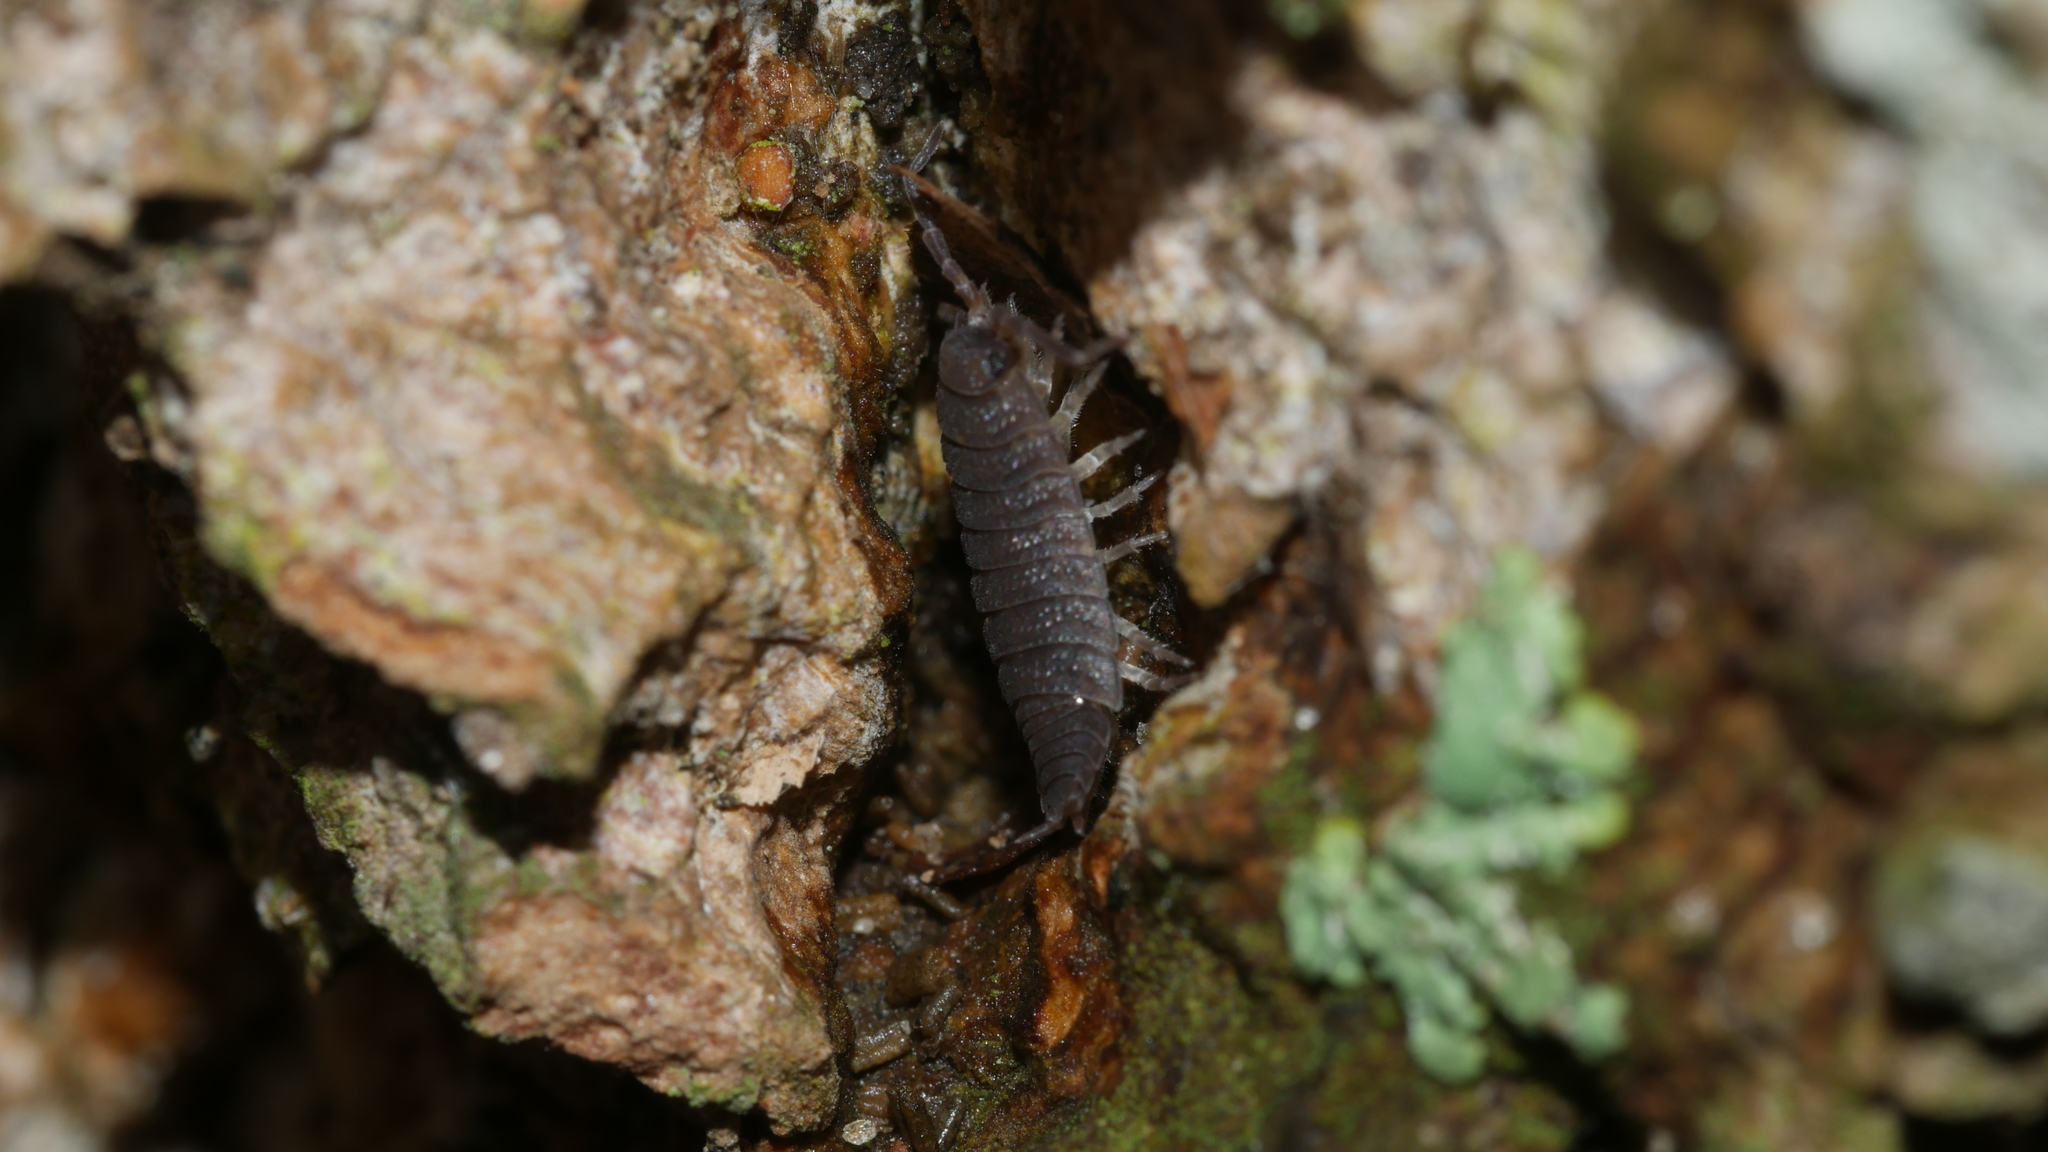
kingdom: Animalia
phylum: Arthropoda
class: Malacostraca
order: Isopoda
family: Porcellionidae
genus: Porcellio
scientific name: Porcellio scaber
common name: Common rough woodlouse
